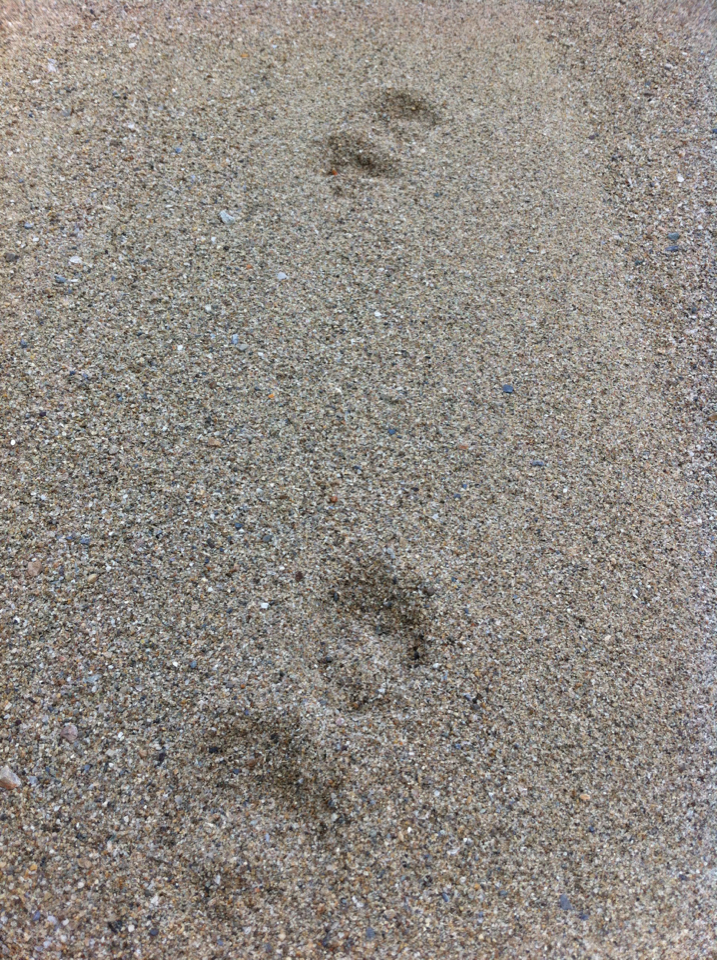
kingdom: Animalia
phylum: Chordata
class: Mammalia
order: Carnivora
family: Canidae
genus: Vulpes
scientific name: Vulpes vulpes
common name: Red fox
